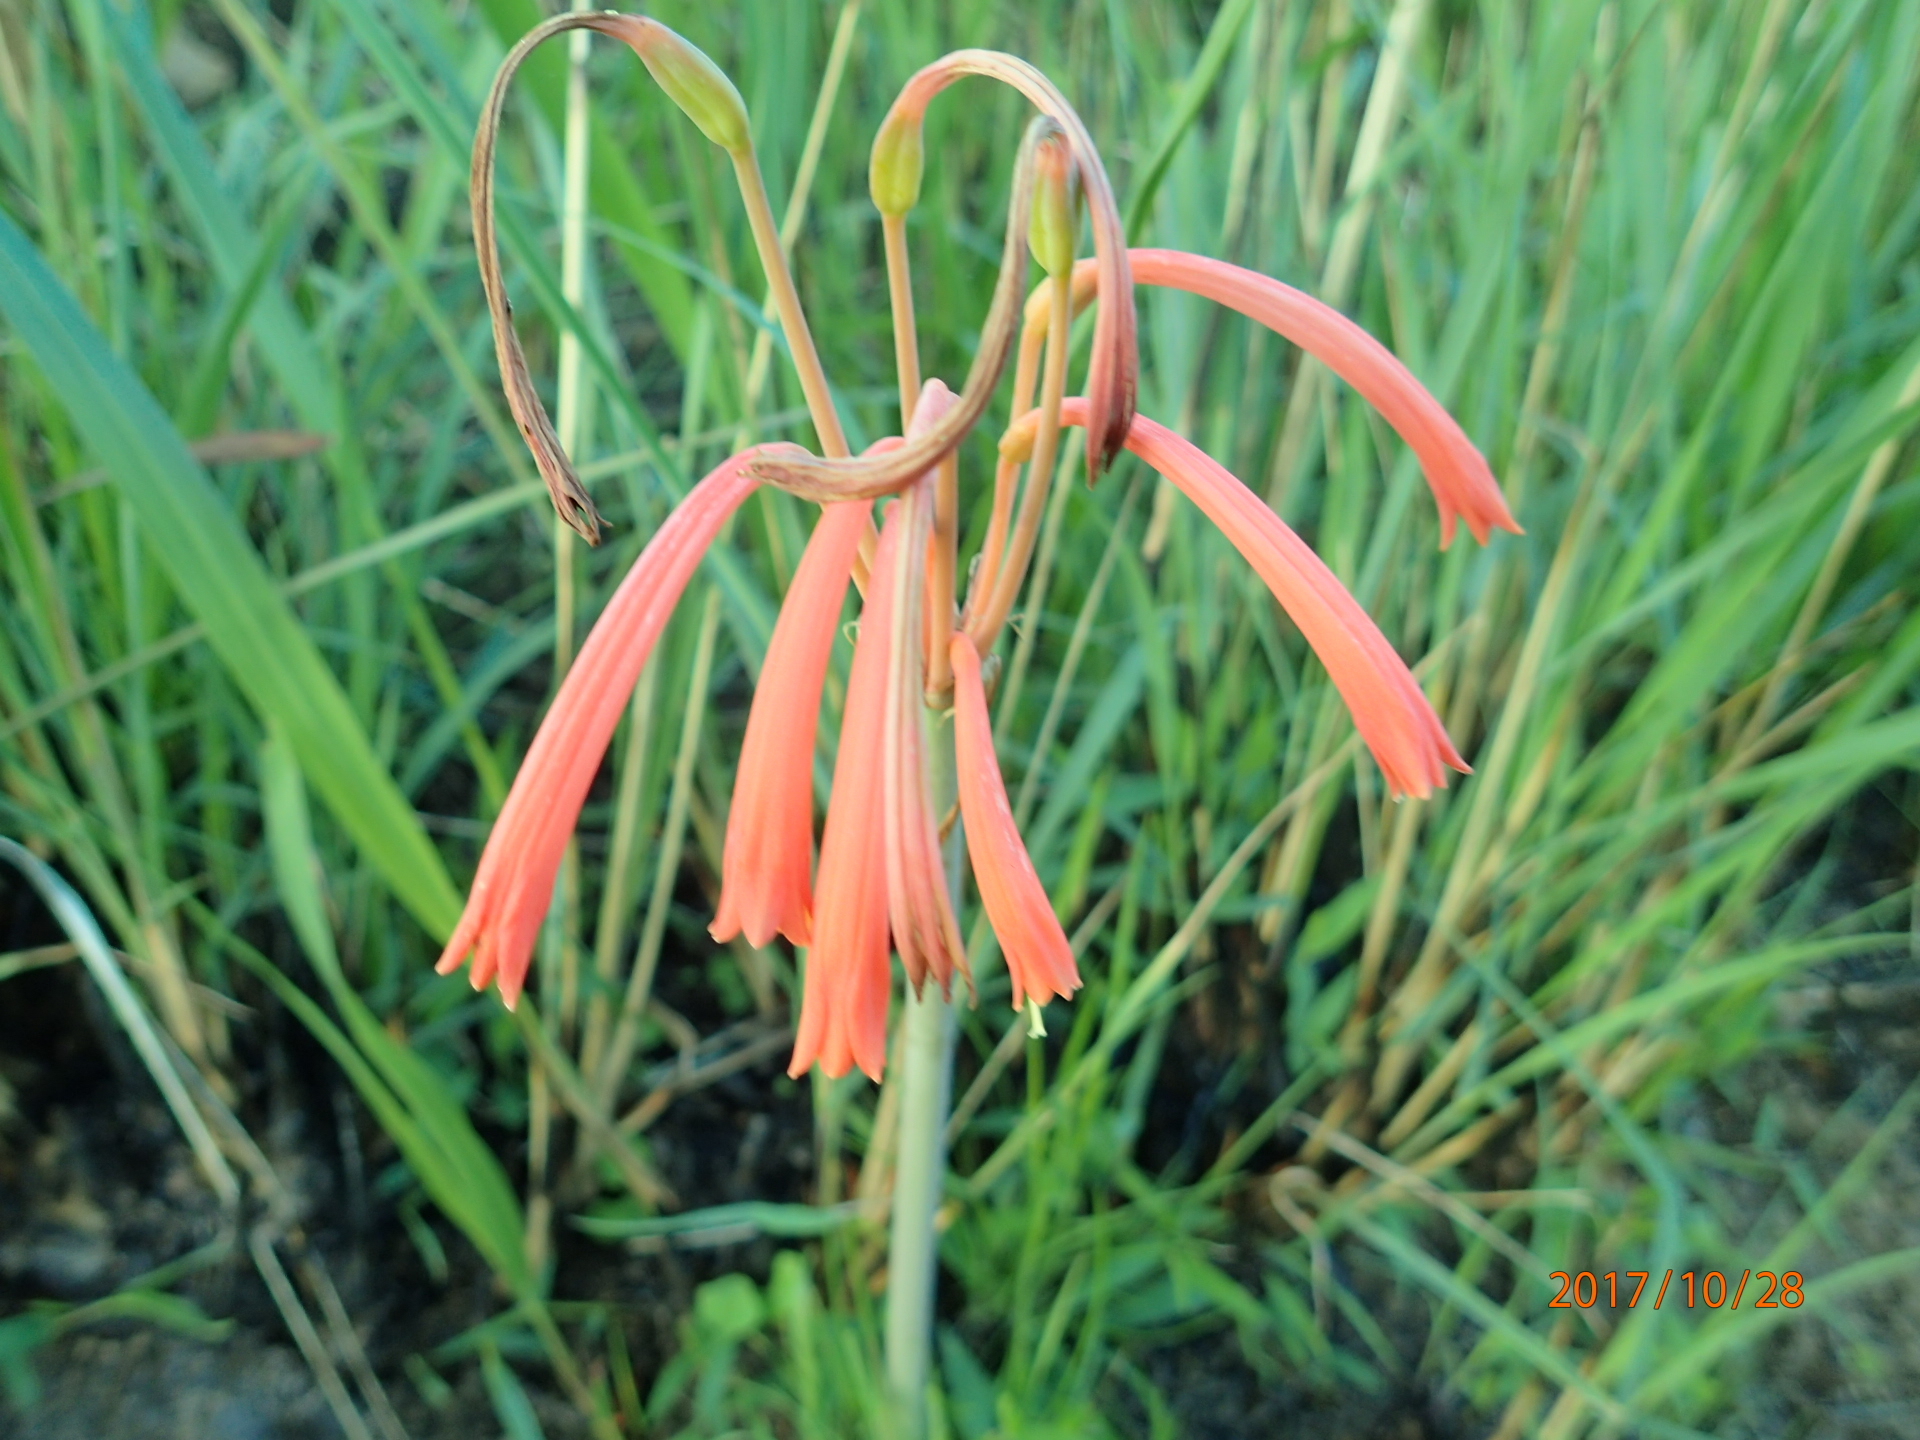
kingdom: Plantae
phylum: Tracheophyta
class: Liliopsida
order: Asparagales
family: Amaryllidaceae
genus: Cyrtanthus
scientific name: Cyrtanthus tuckii
